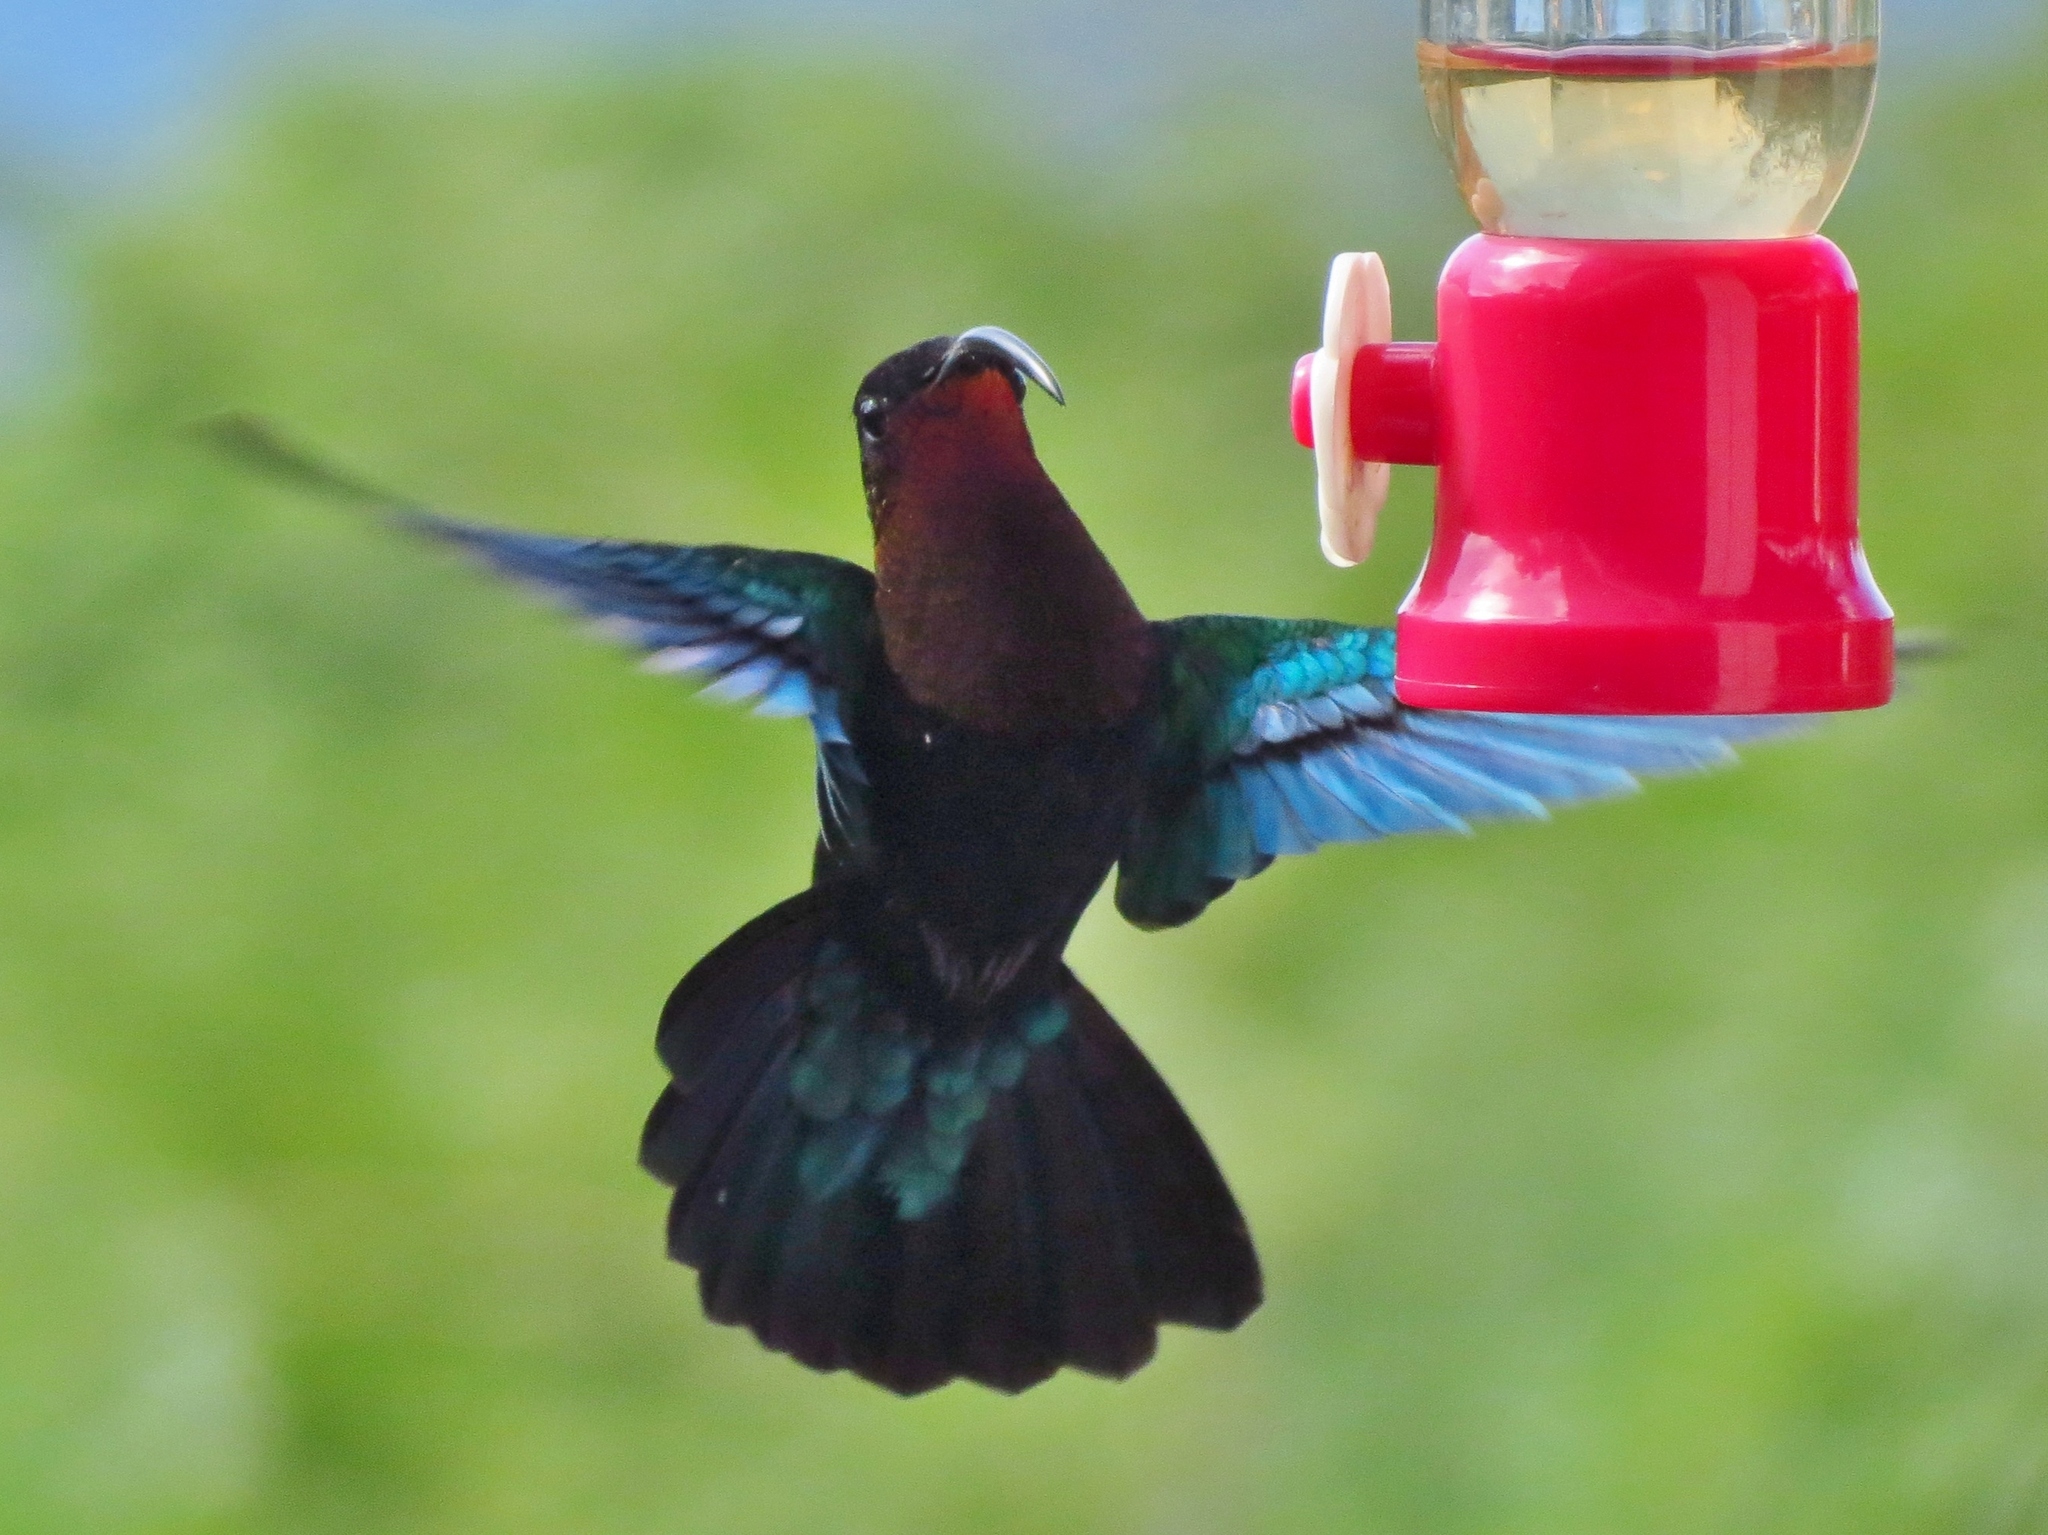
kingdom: Animalia
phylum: Chordata
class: Aves
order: Apodiformes
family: Trochilidae
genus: Eulampis
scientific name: Eulampis jugularis
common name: Purple-throated carib
